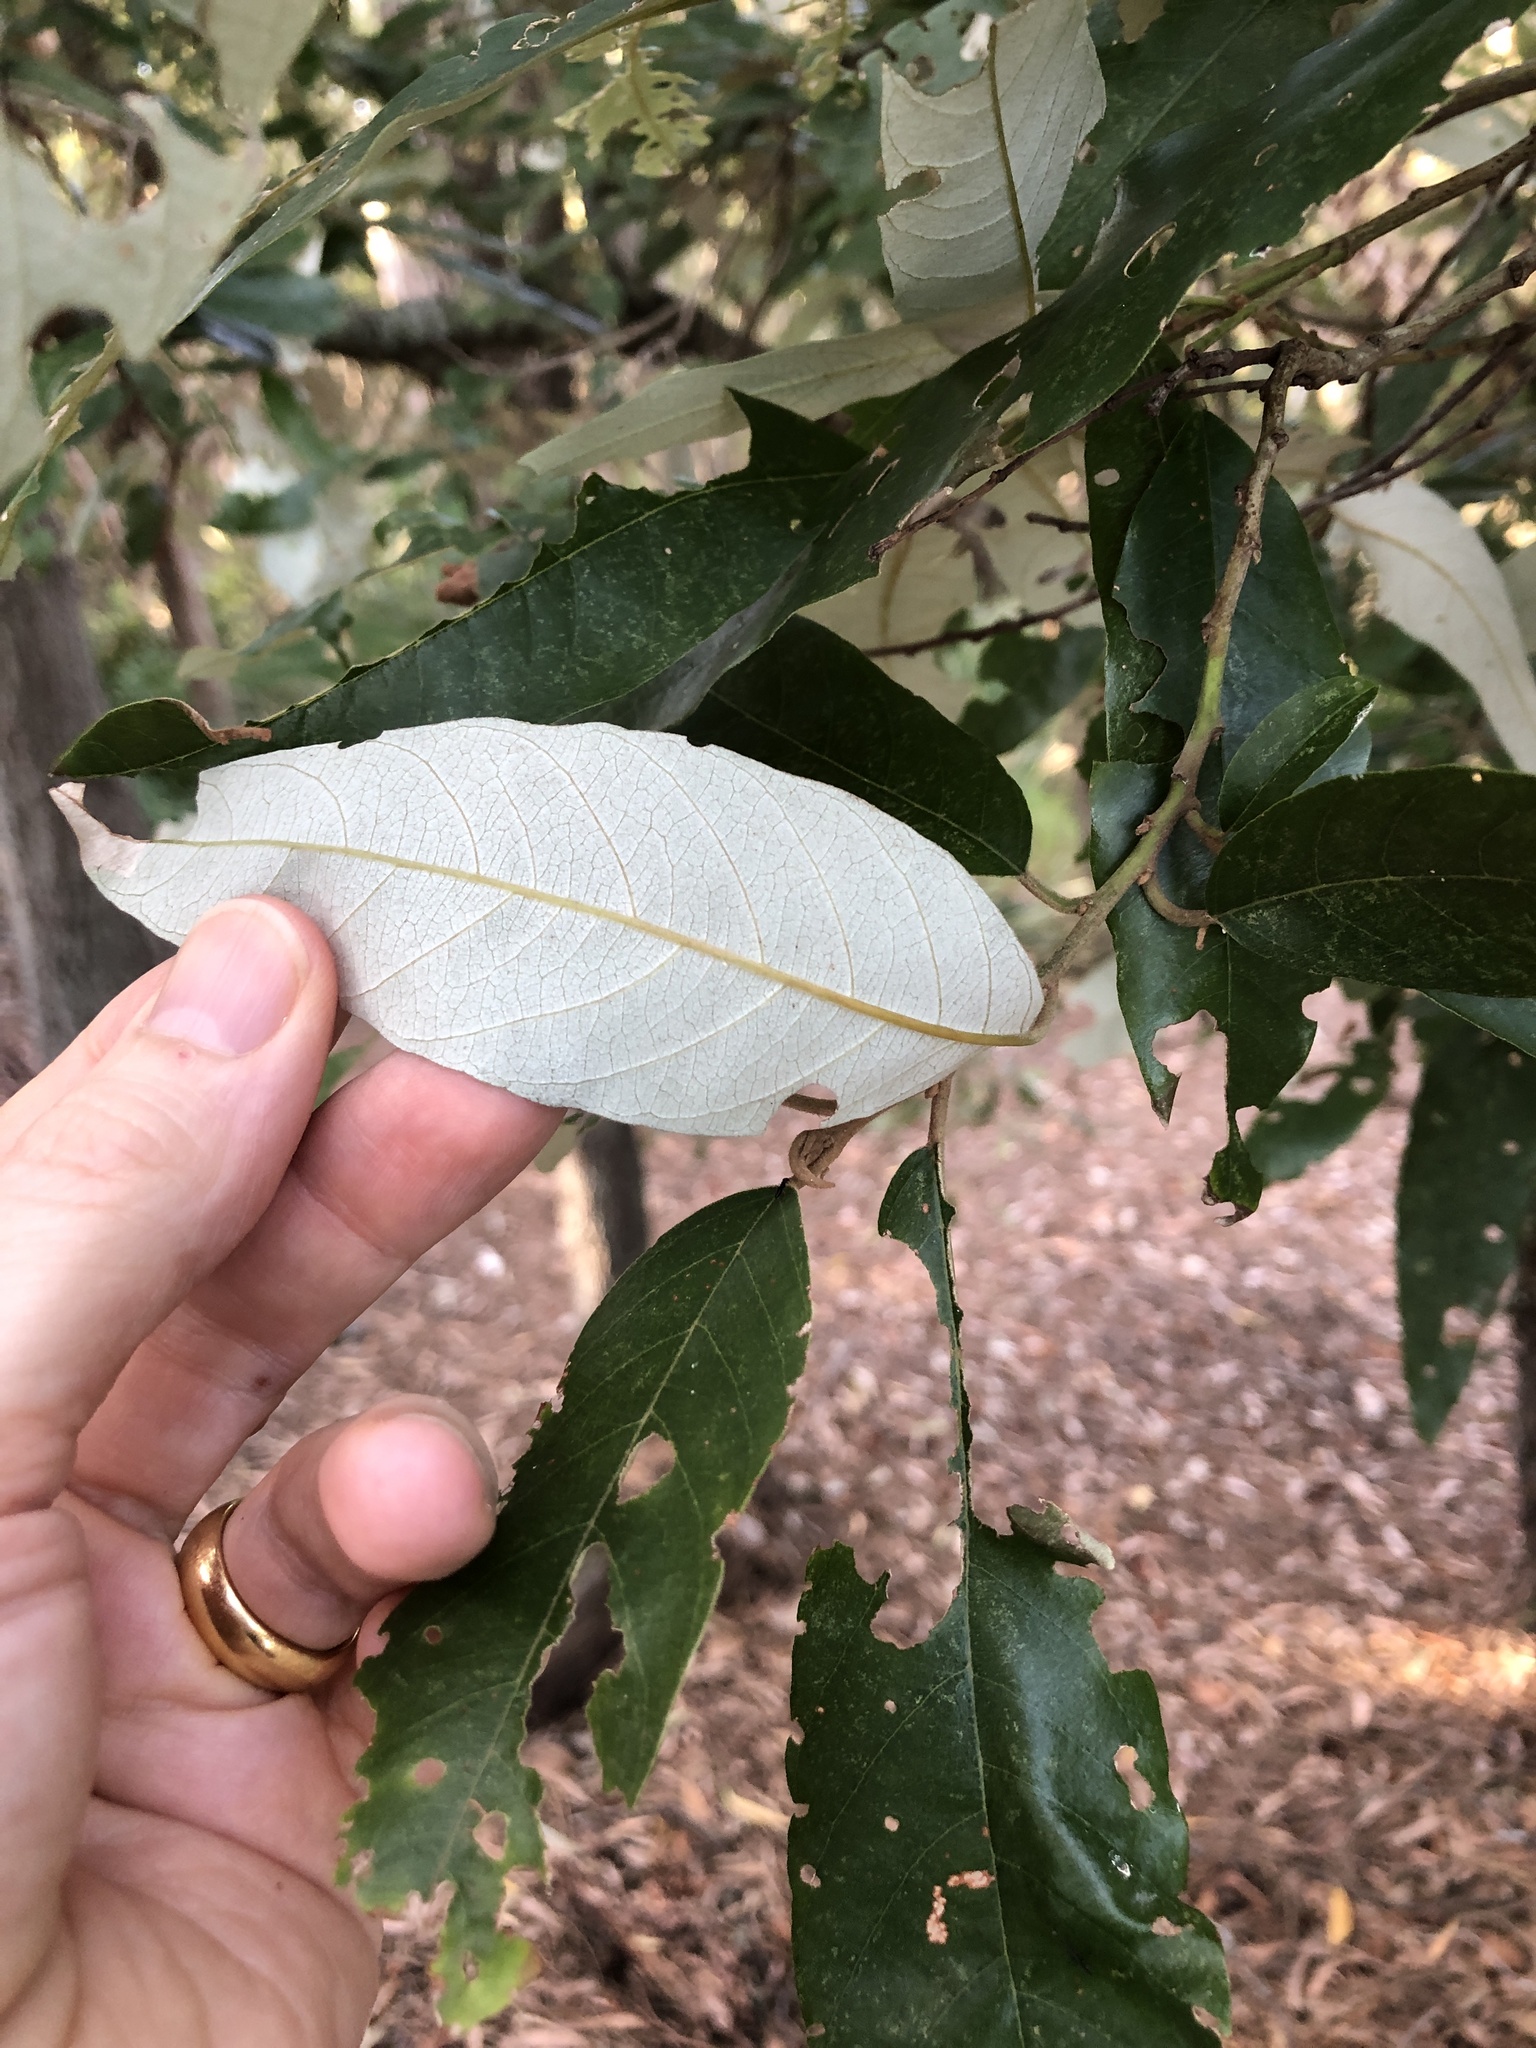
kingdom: Plantae
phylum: Tracheophyta
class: Magnoliopsida
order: Rosales
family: Rhamnaceae
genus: Alphitonia
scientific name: Alphitonia excelsa
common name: Red ash
